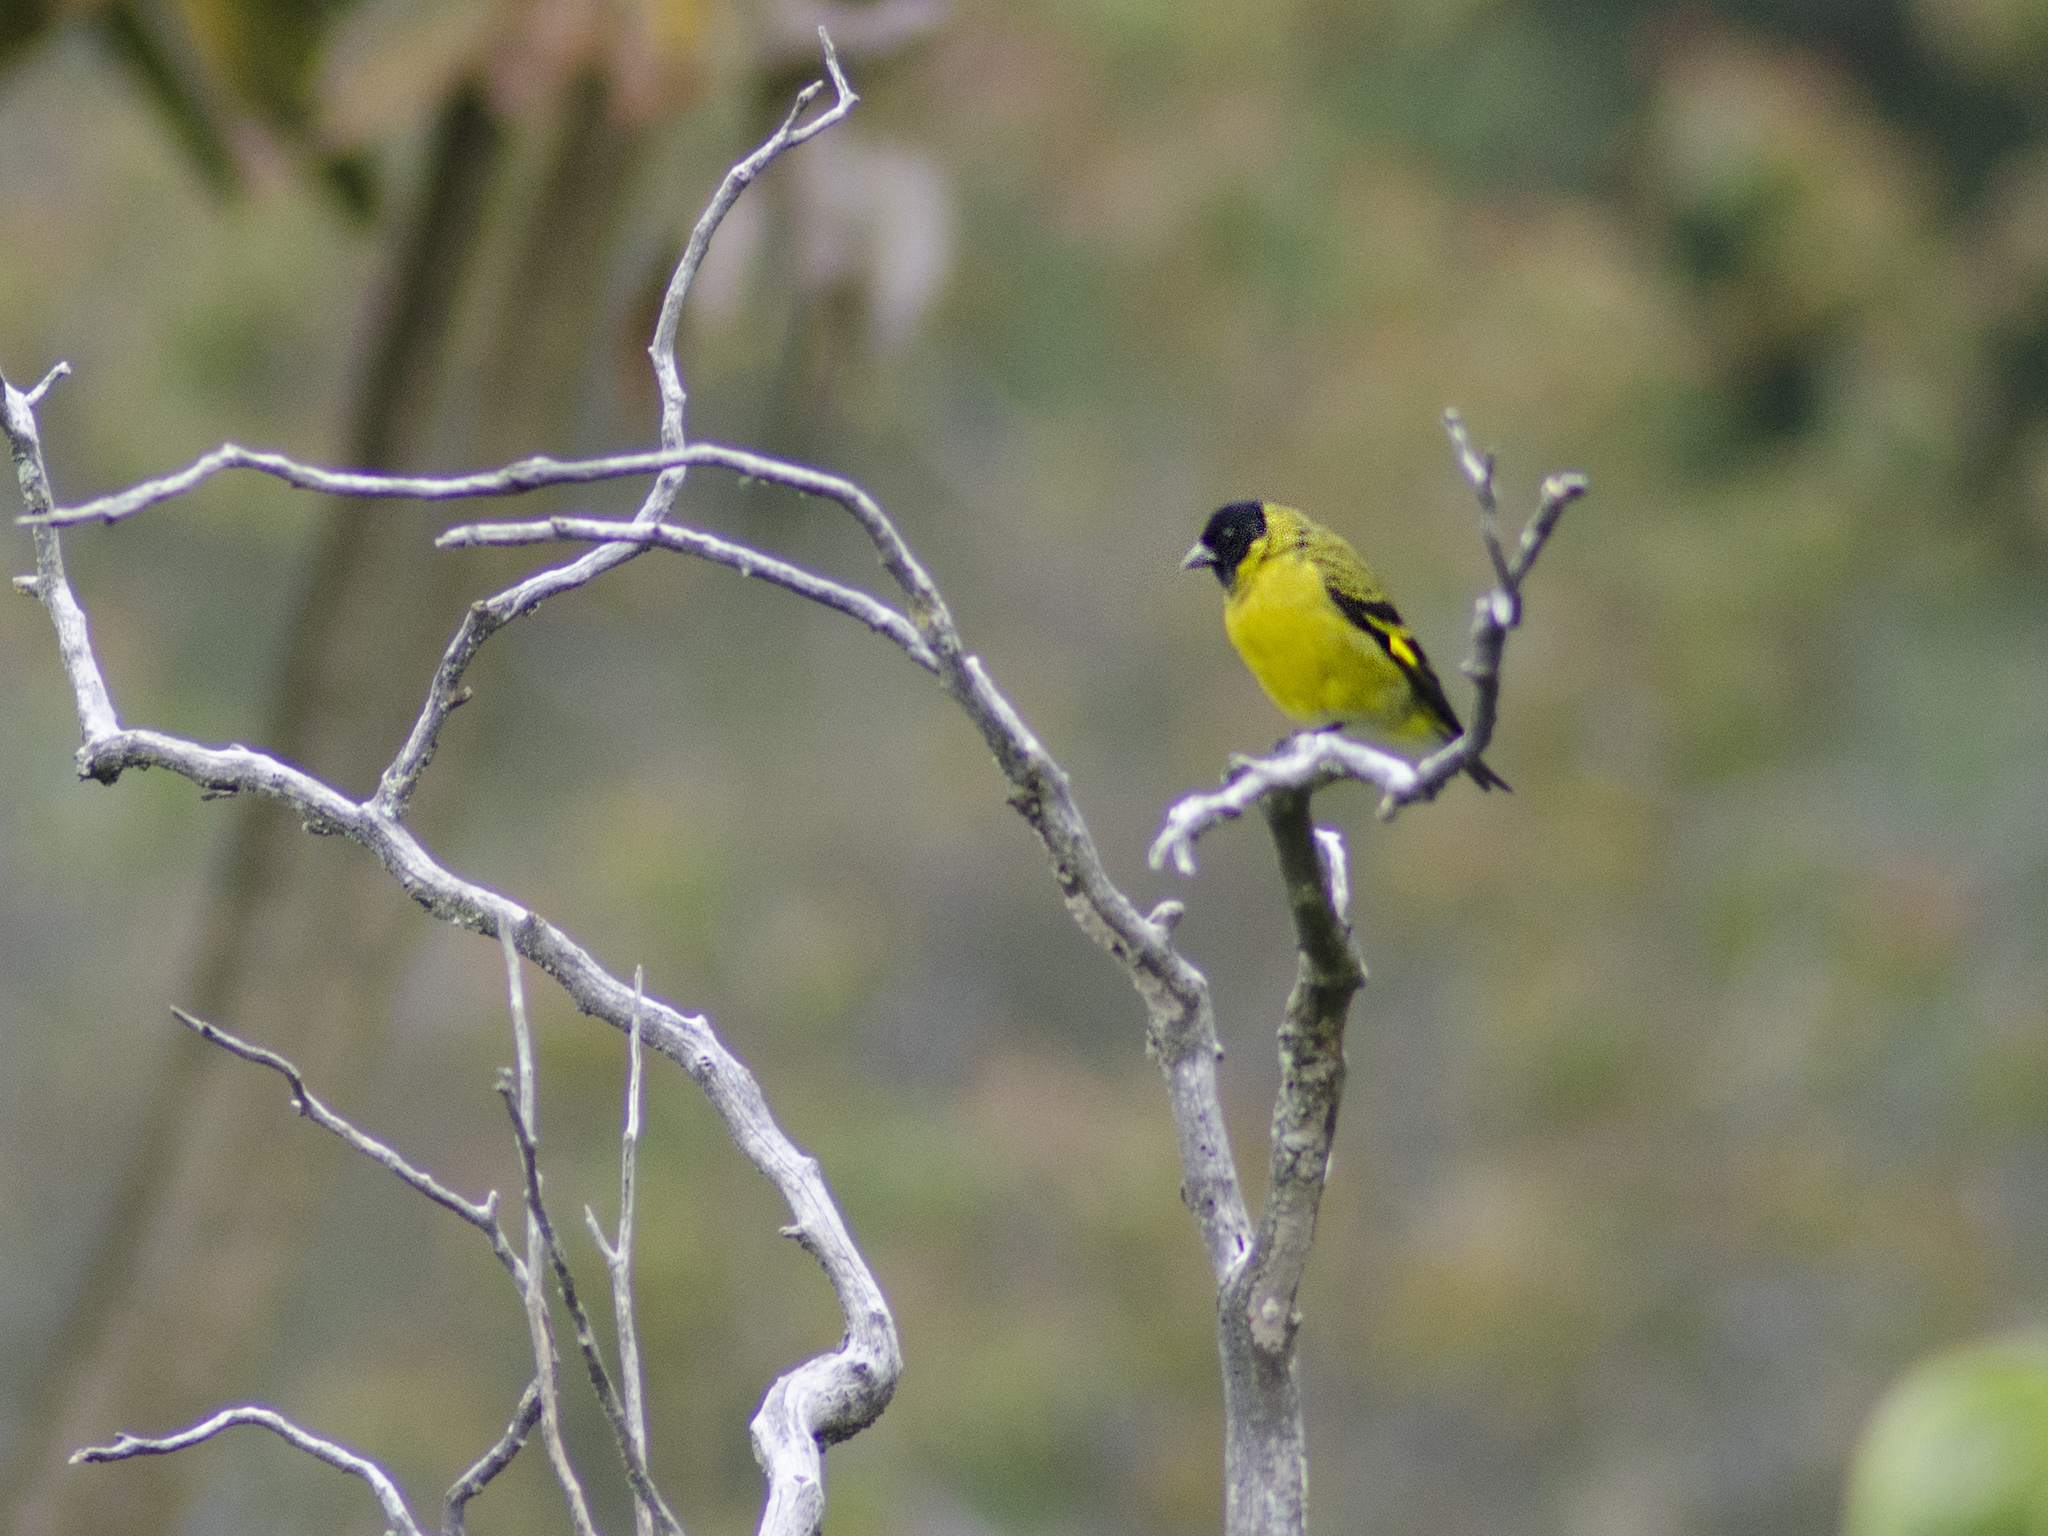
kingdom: Animalia
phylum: Chordata
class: Aves
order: Passeriformes
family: Fringillidae
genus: Spinus
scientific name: Spinus magellanicus
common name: Hooded siskin
